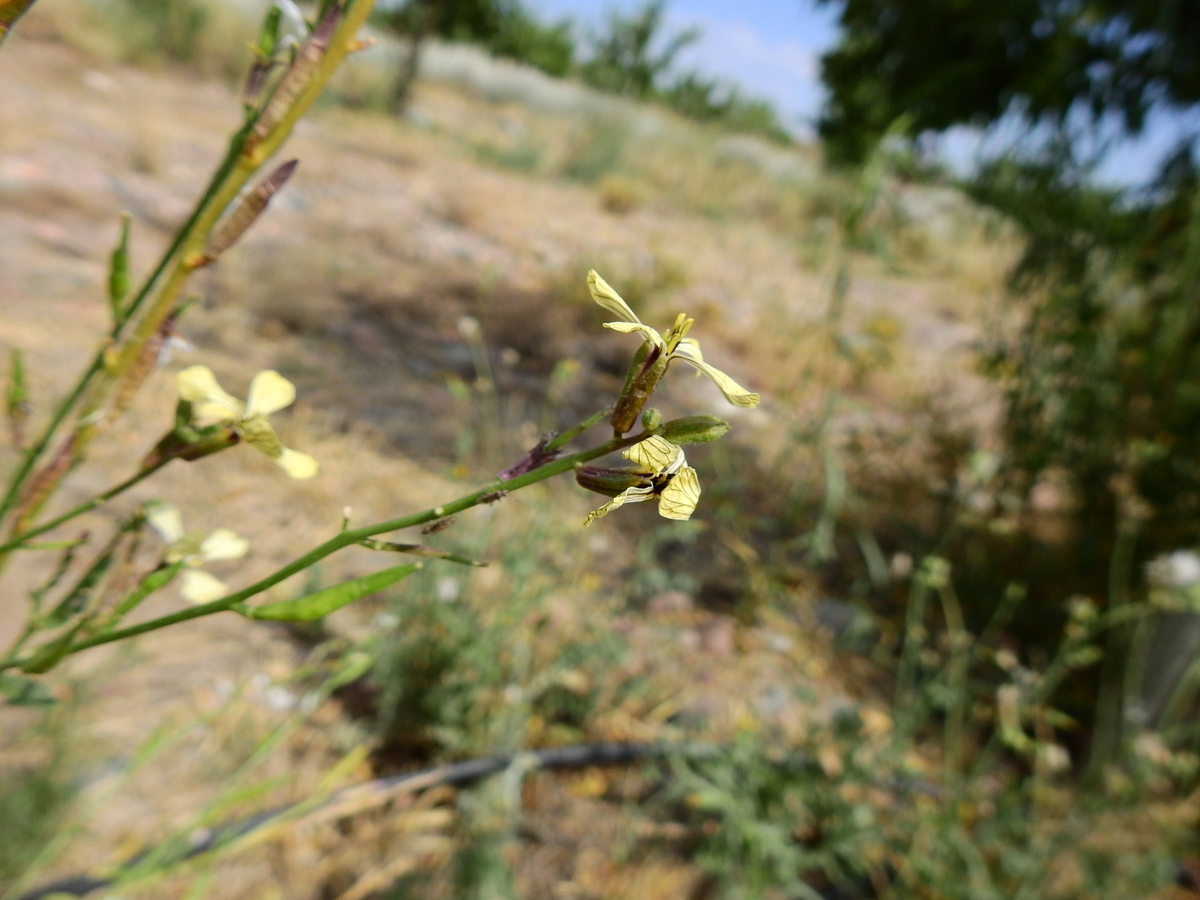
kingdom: Plantae
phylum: Tracheophyta
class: Magnoliopsida
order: Brassicales
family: Brassicaceae
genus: Eruca
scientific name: Eruca vesicaria
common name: Garden rocket
